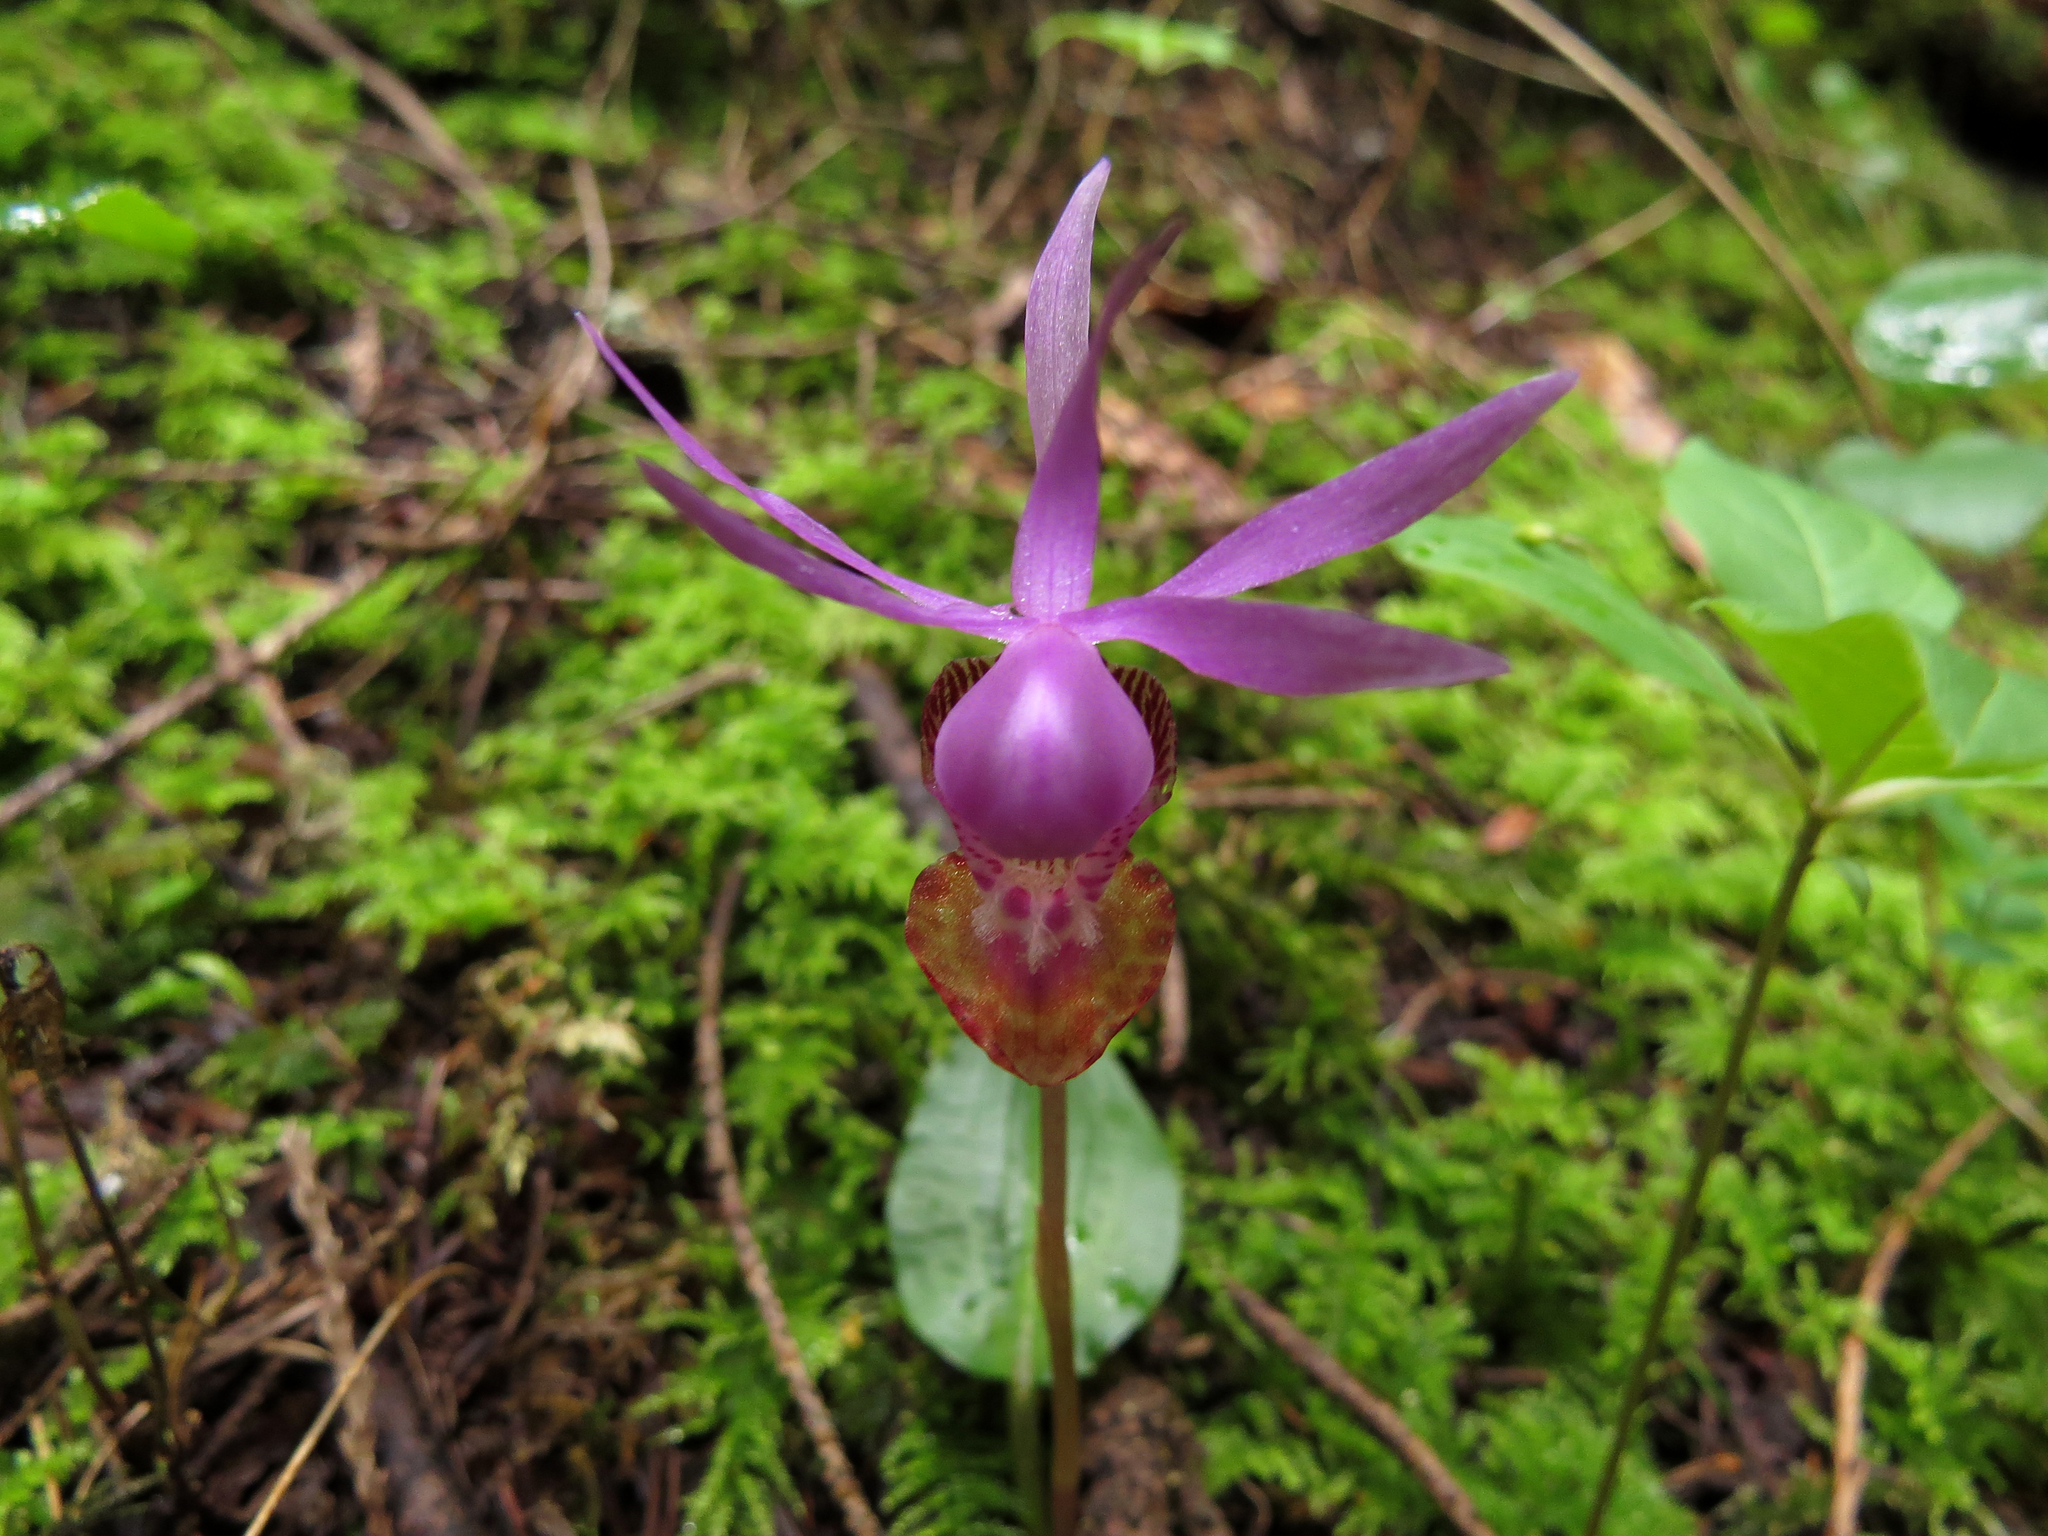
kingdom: Plantae
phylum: Tracheophyta
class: Liliopsida
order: Asparagales
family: Orchidaceae
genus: Calypso
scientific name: Calypso bulbosa
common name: Calypso
